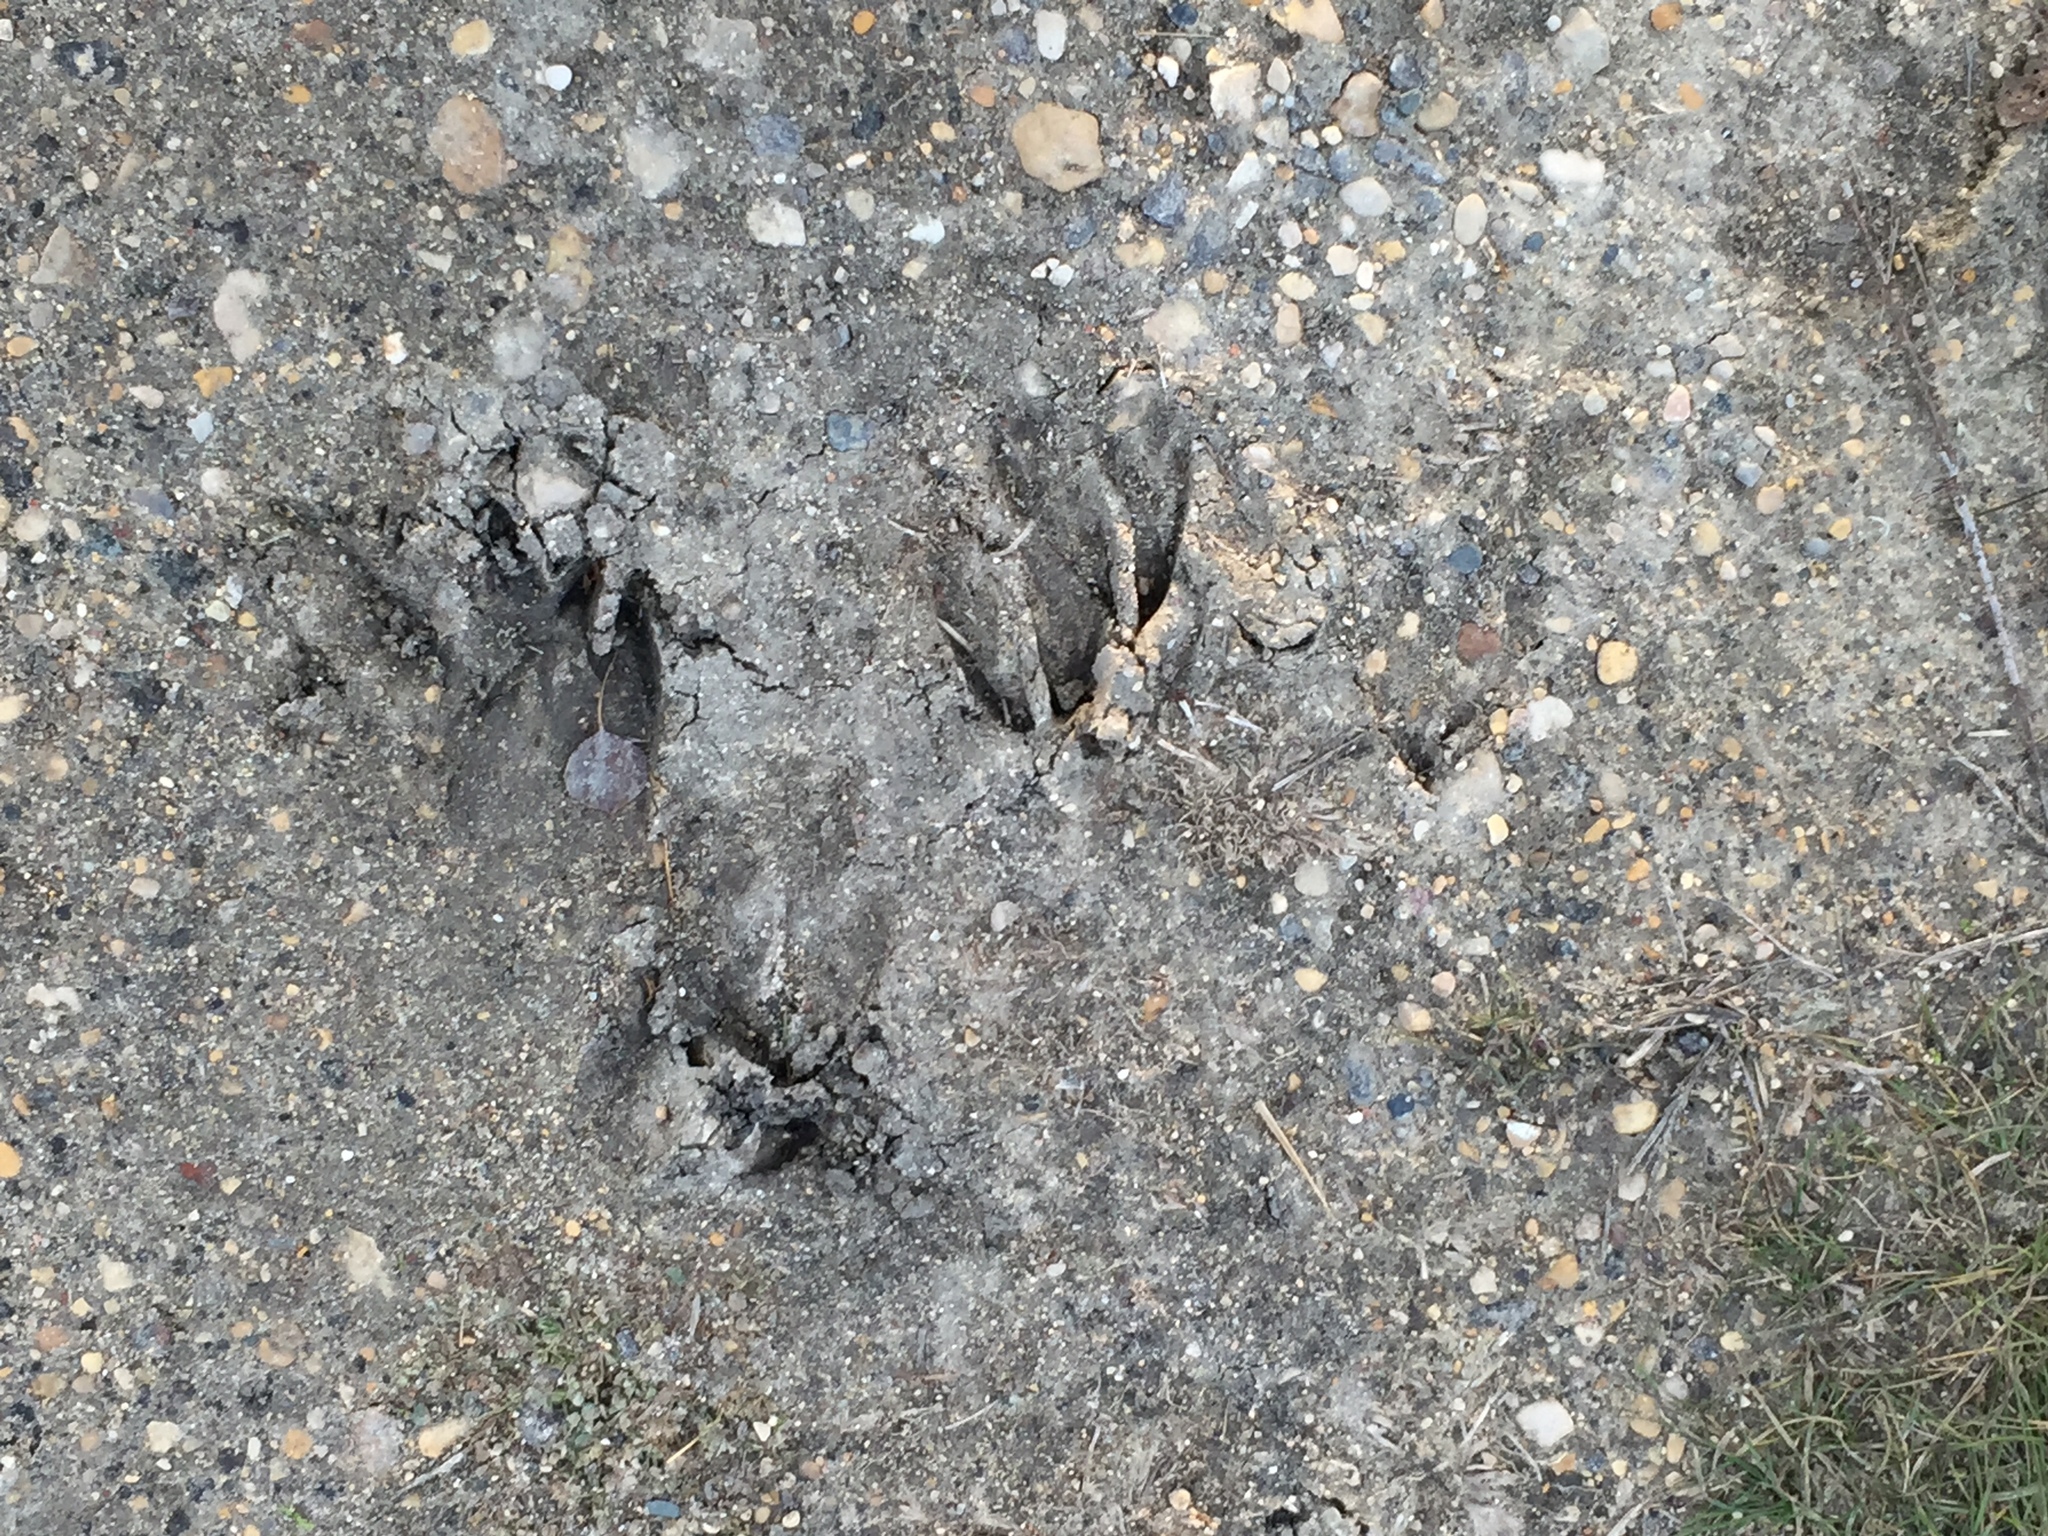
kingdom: Animalia
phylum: Chordata
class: Mammalia
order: Artiodactyla
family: Cervidae
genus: Odocoileus
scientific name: Odocoileus virginianus
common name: White-tailed deer
